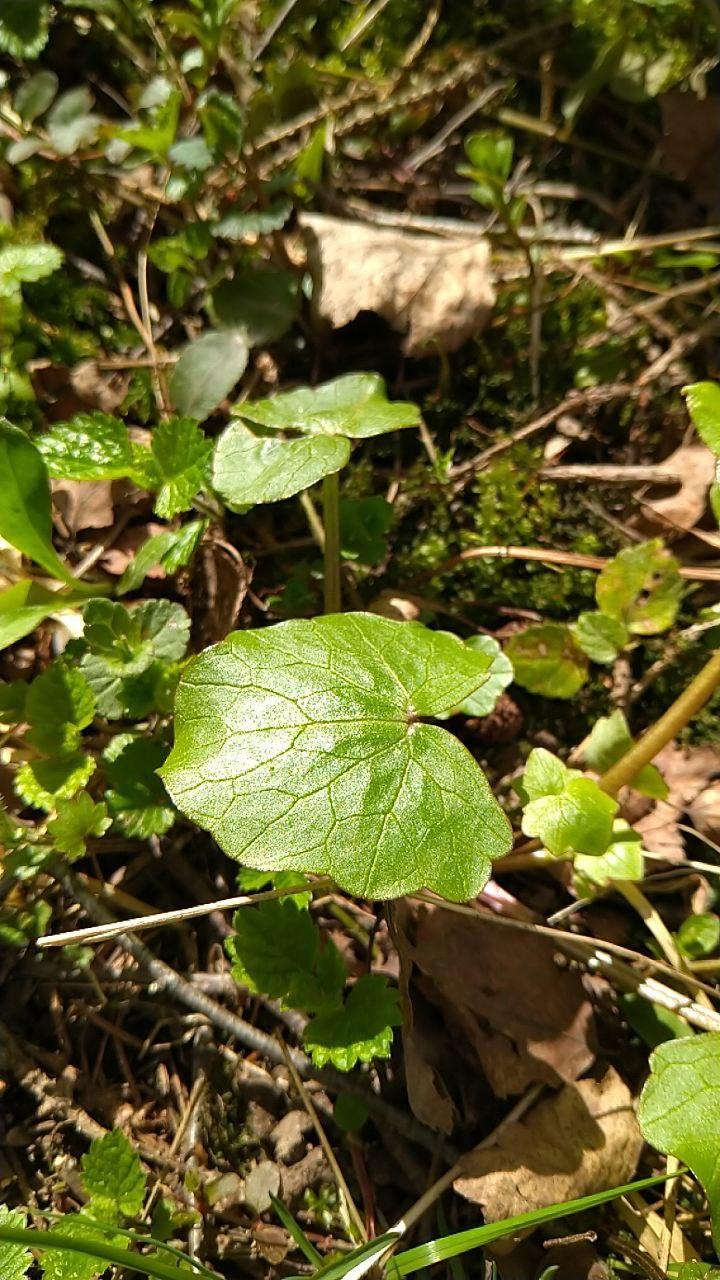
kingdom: Plantae
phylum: Tracheophyta
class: Magnoliopsida
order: Ranunculales
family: Ranunculaceae
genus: Ficaria
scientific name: Ficaria verna
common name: Lesser celandine
